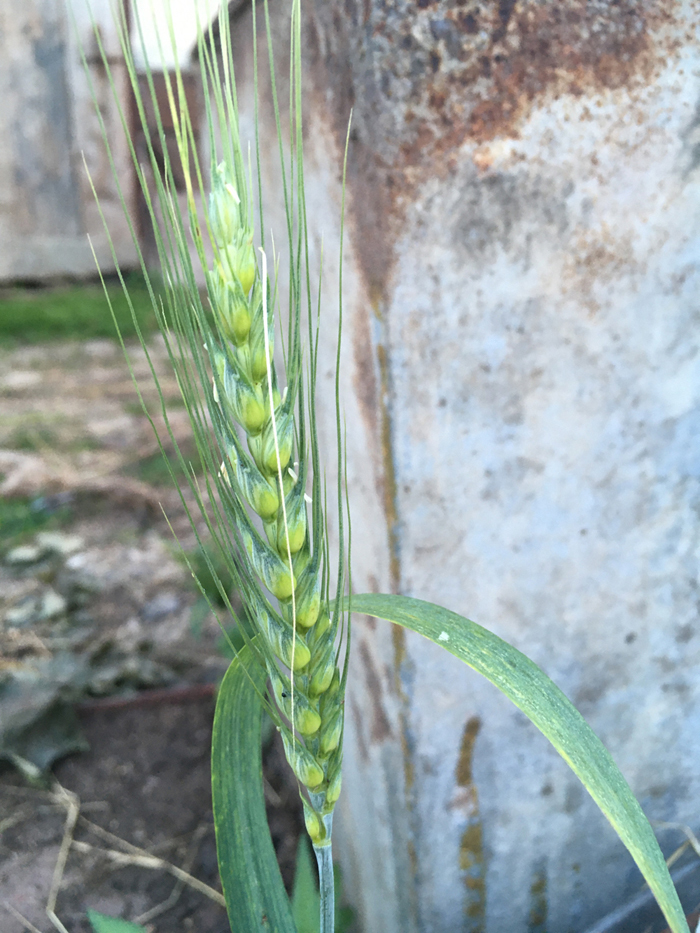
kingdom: Plantae
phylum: Tracheophyta
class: Liliopsida
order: Poales
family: Poaceae
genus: Triticum
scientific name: Triticum aestivum
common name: Common wheat
